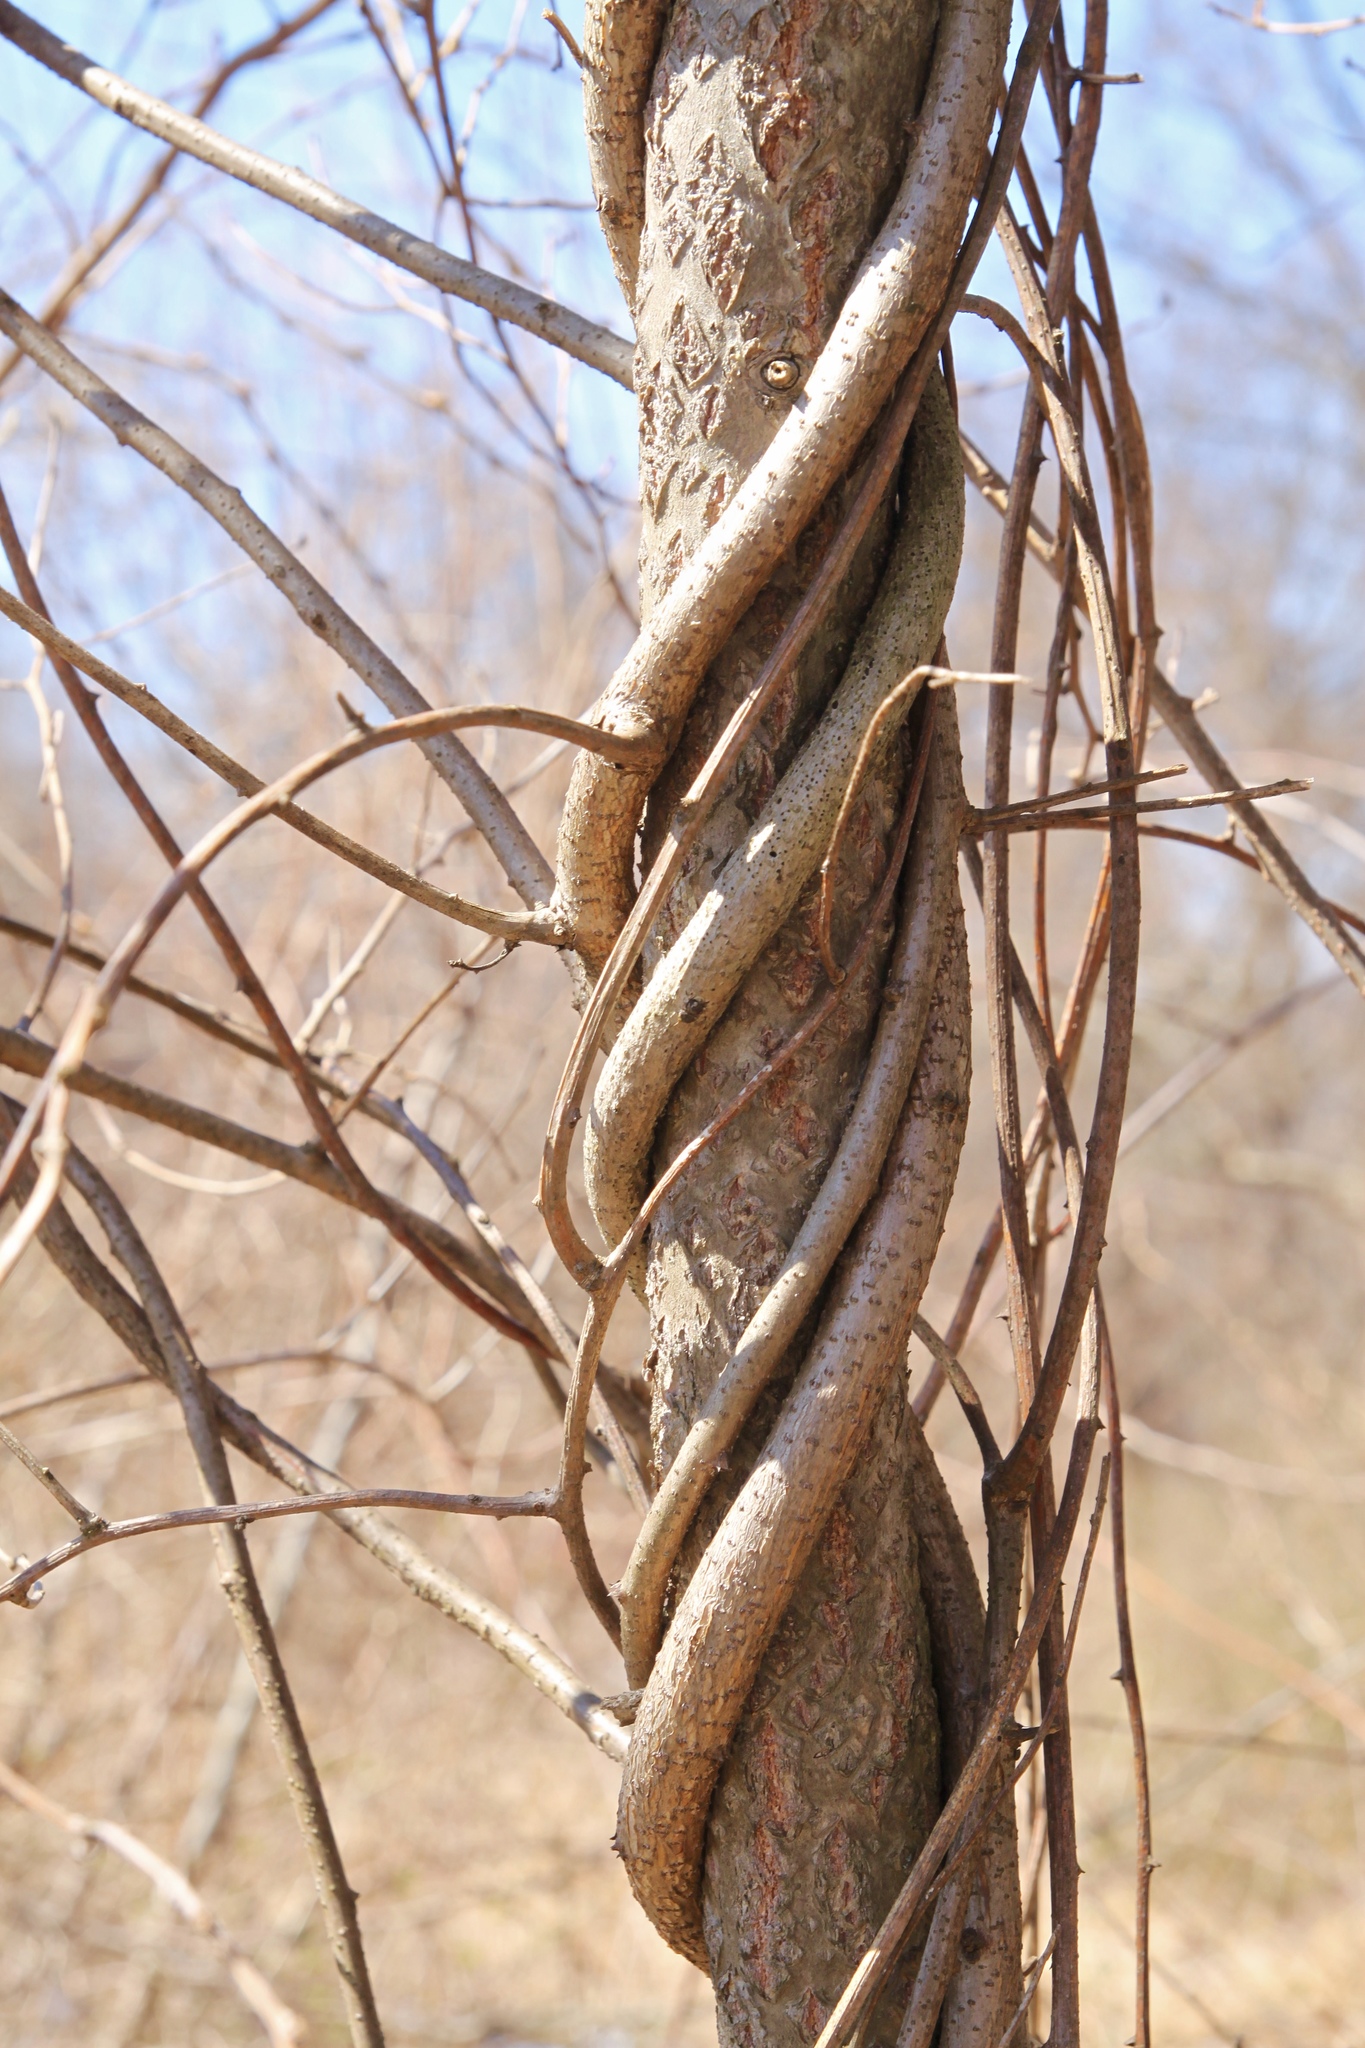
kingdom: Plantae
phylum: Tracheophyta
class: Magnoliopsida
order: Celastrales
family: Celastraceae
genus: Celastrus
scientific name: Celastrus orbiculatus
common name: Oriental bittersweet
